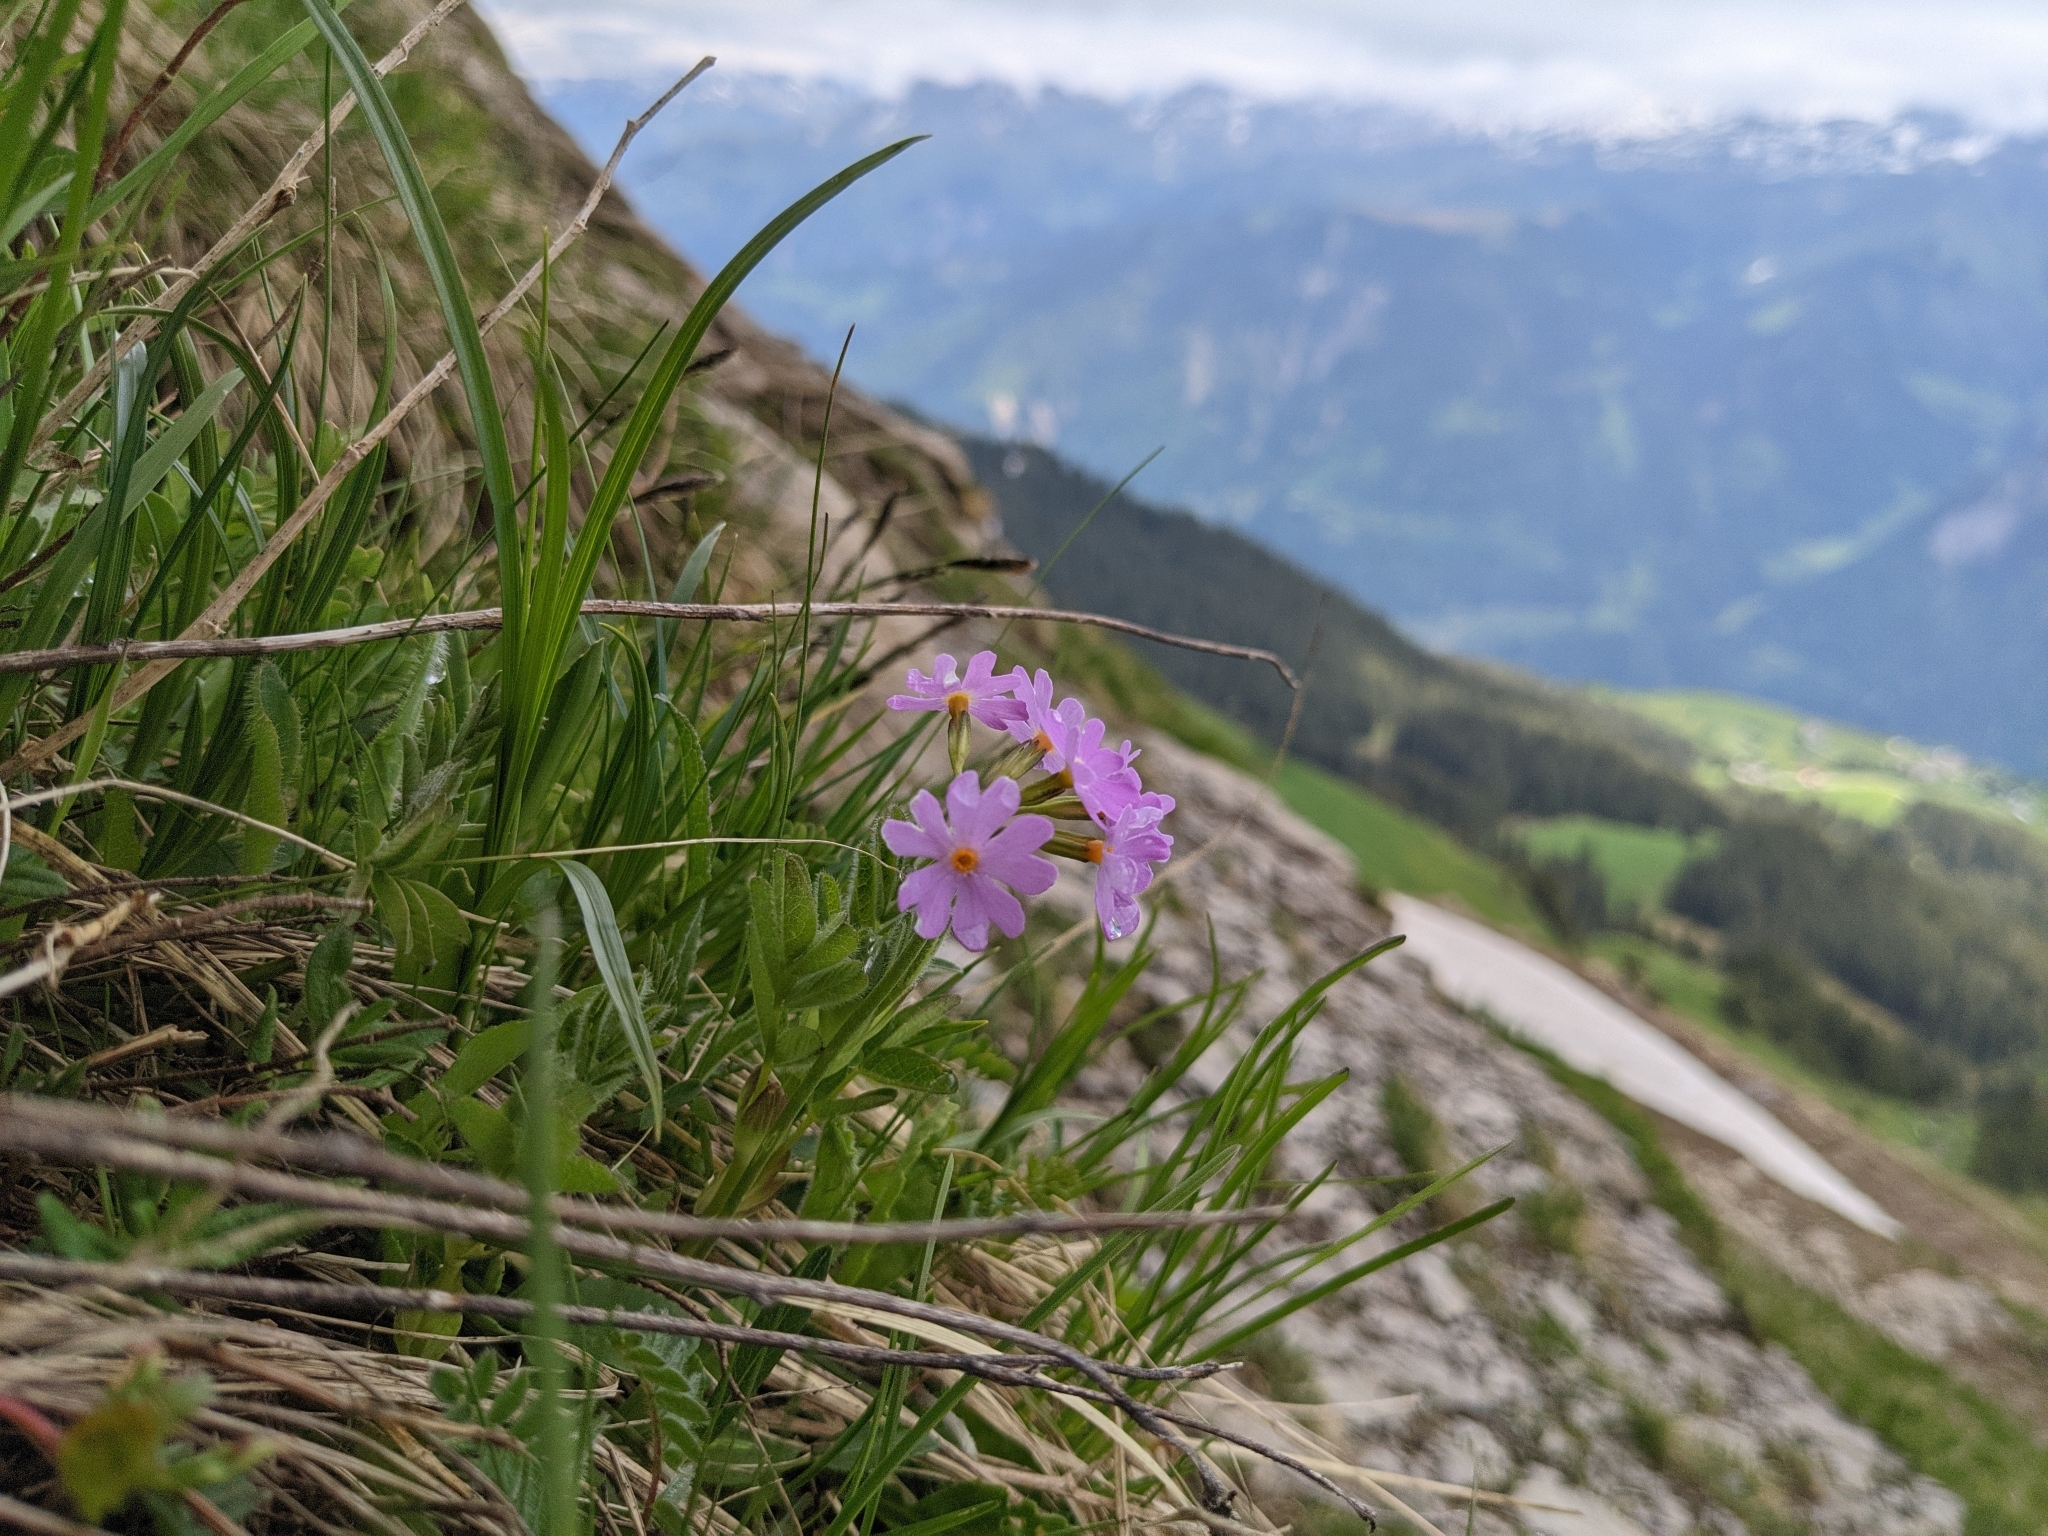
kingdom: Plantae
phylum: Tracheophyta
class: Magnoliopsida
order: Ericales
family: Primulaceae
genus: Primula
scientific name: Primula farinosa
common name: Bird's-eye primrose
